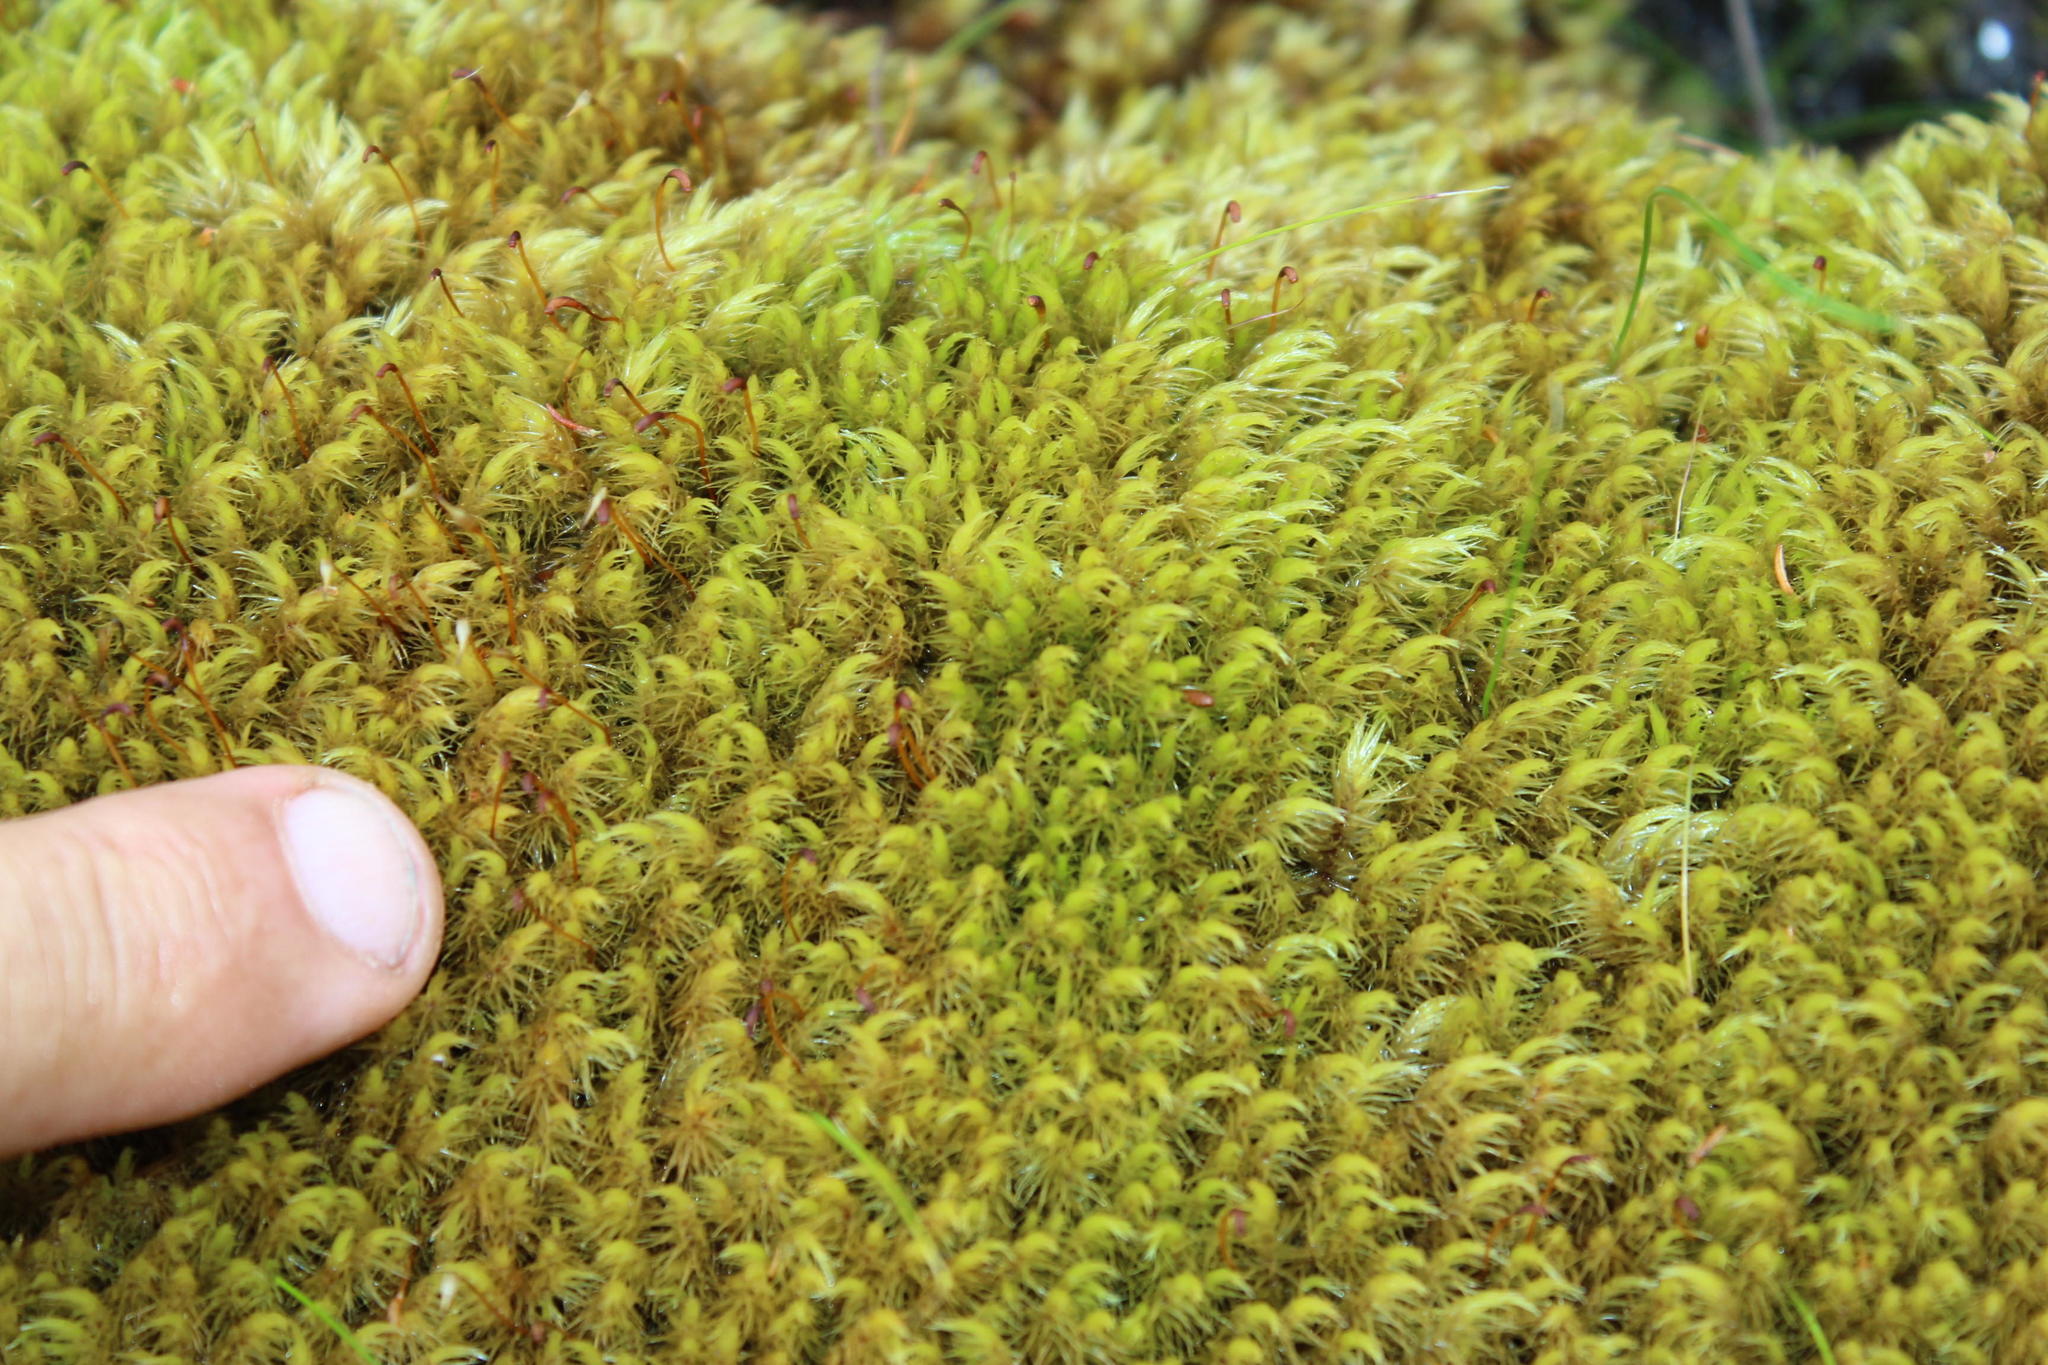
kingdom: Plantae
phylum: Bryophyta
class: Bryopsida
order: Dicranales
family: Dicranaceae
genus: Leucoloma
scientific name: Leucoloma sprengelianum
